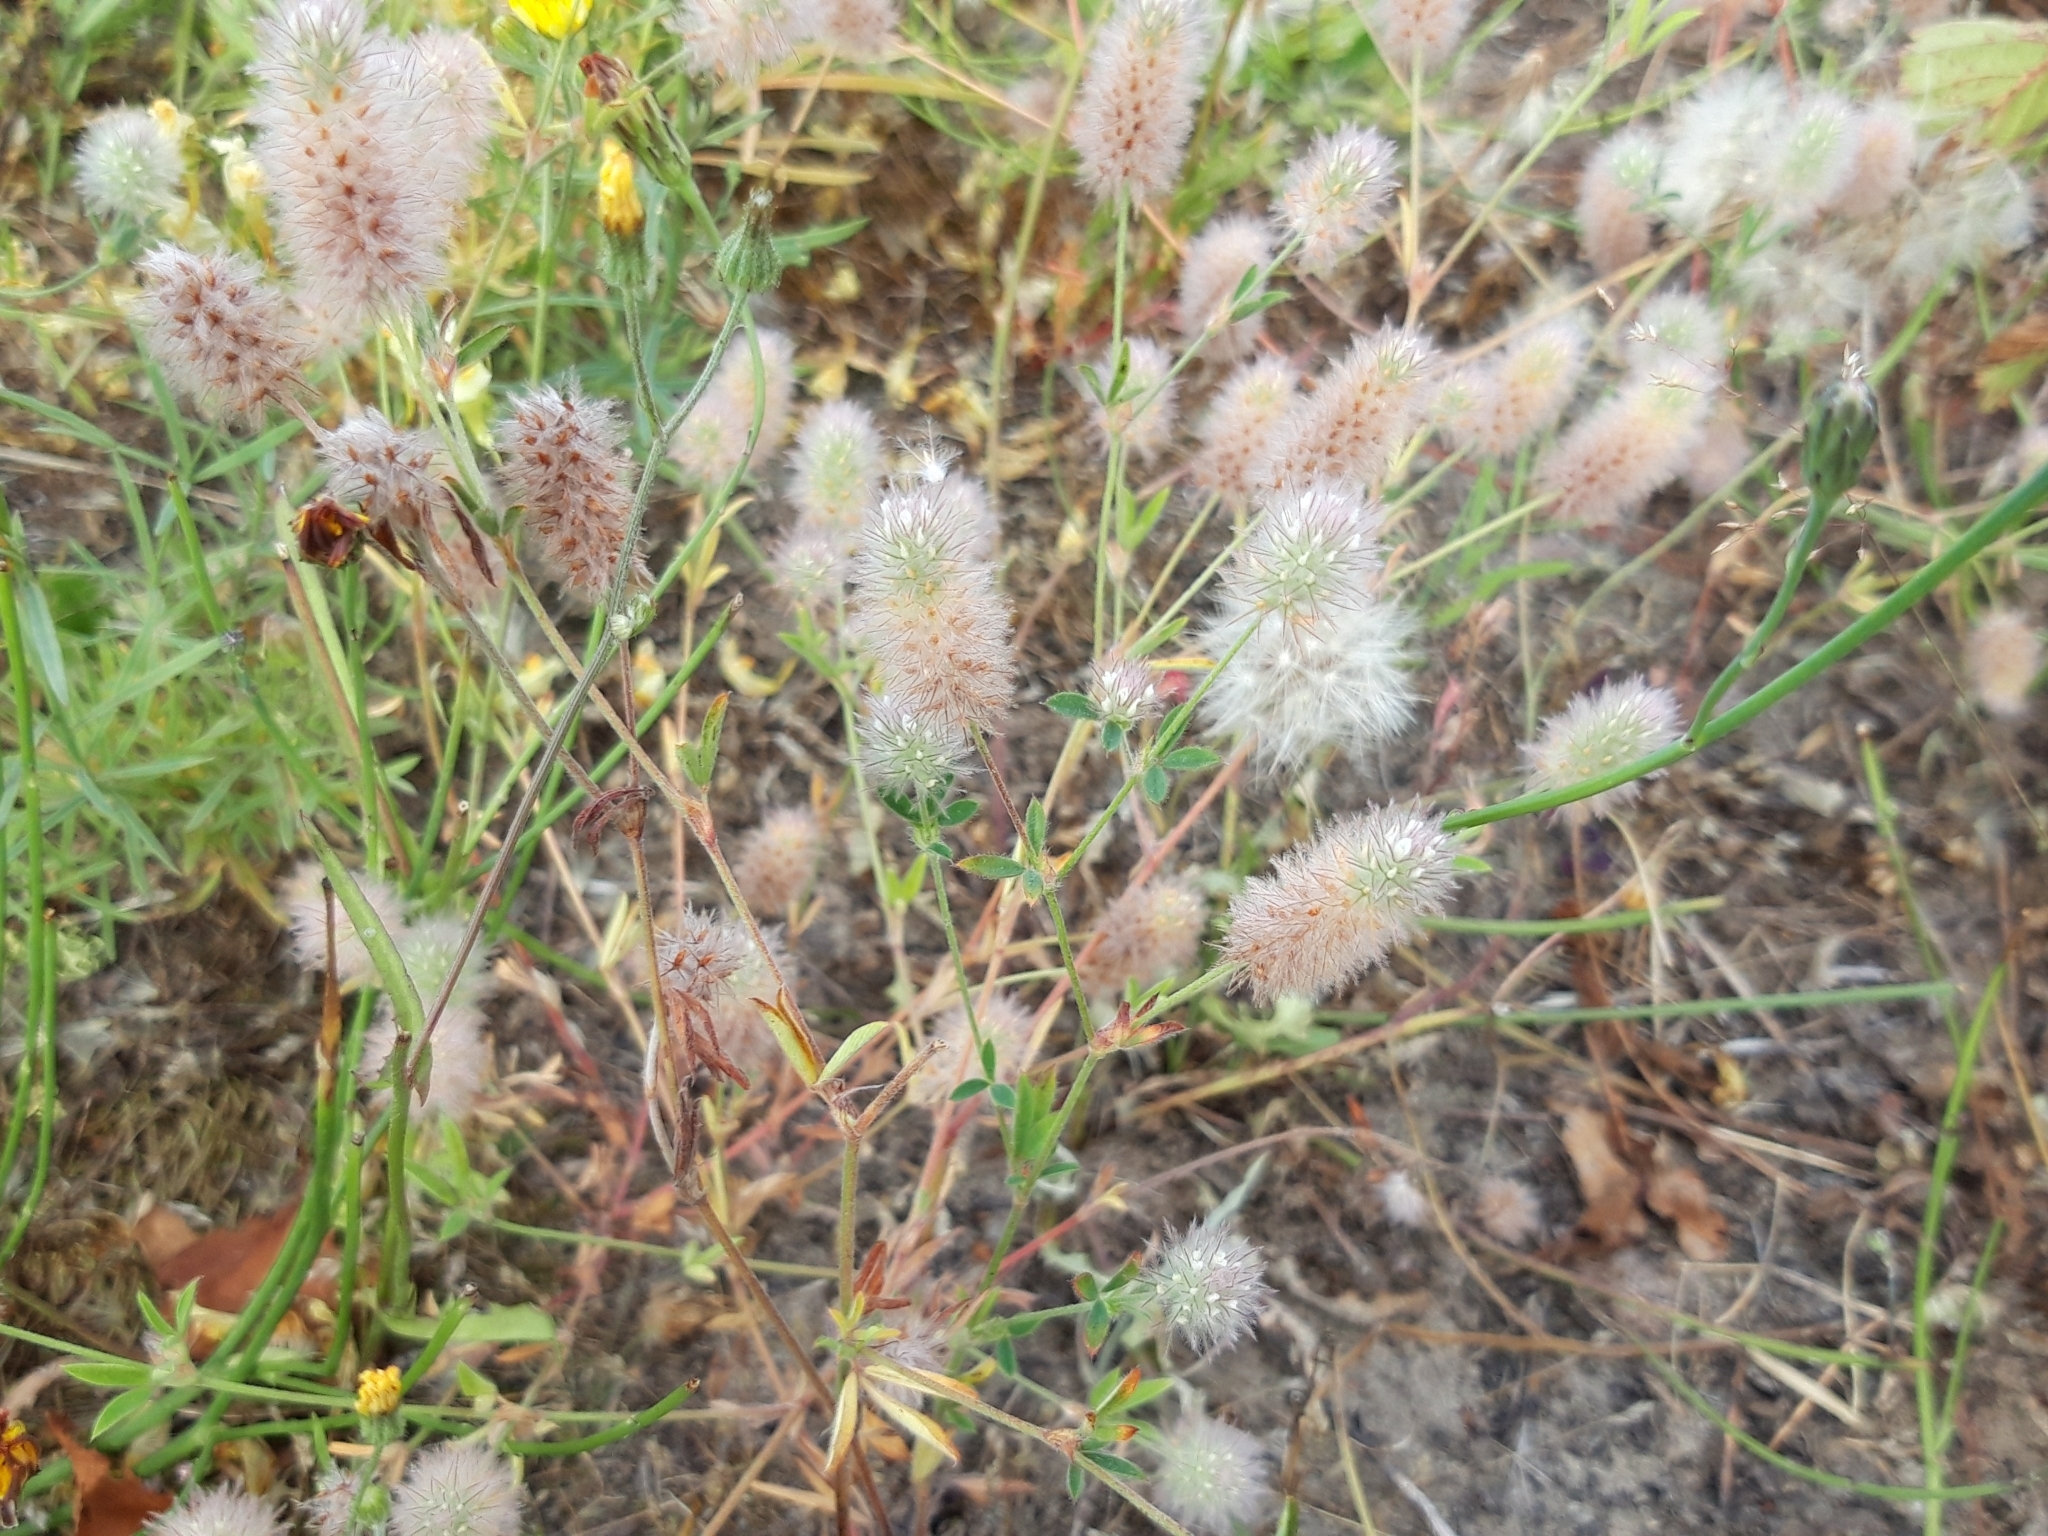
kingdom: Plantae
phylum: Tracheophyta
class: Magnoliopsida
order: Fabales
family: Fabaceae
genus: Trifolium
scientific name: Trifolium arvense
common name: Hare's-foot clover
